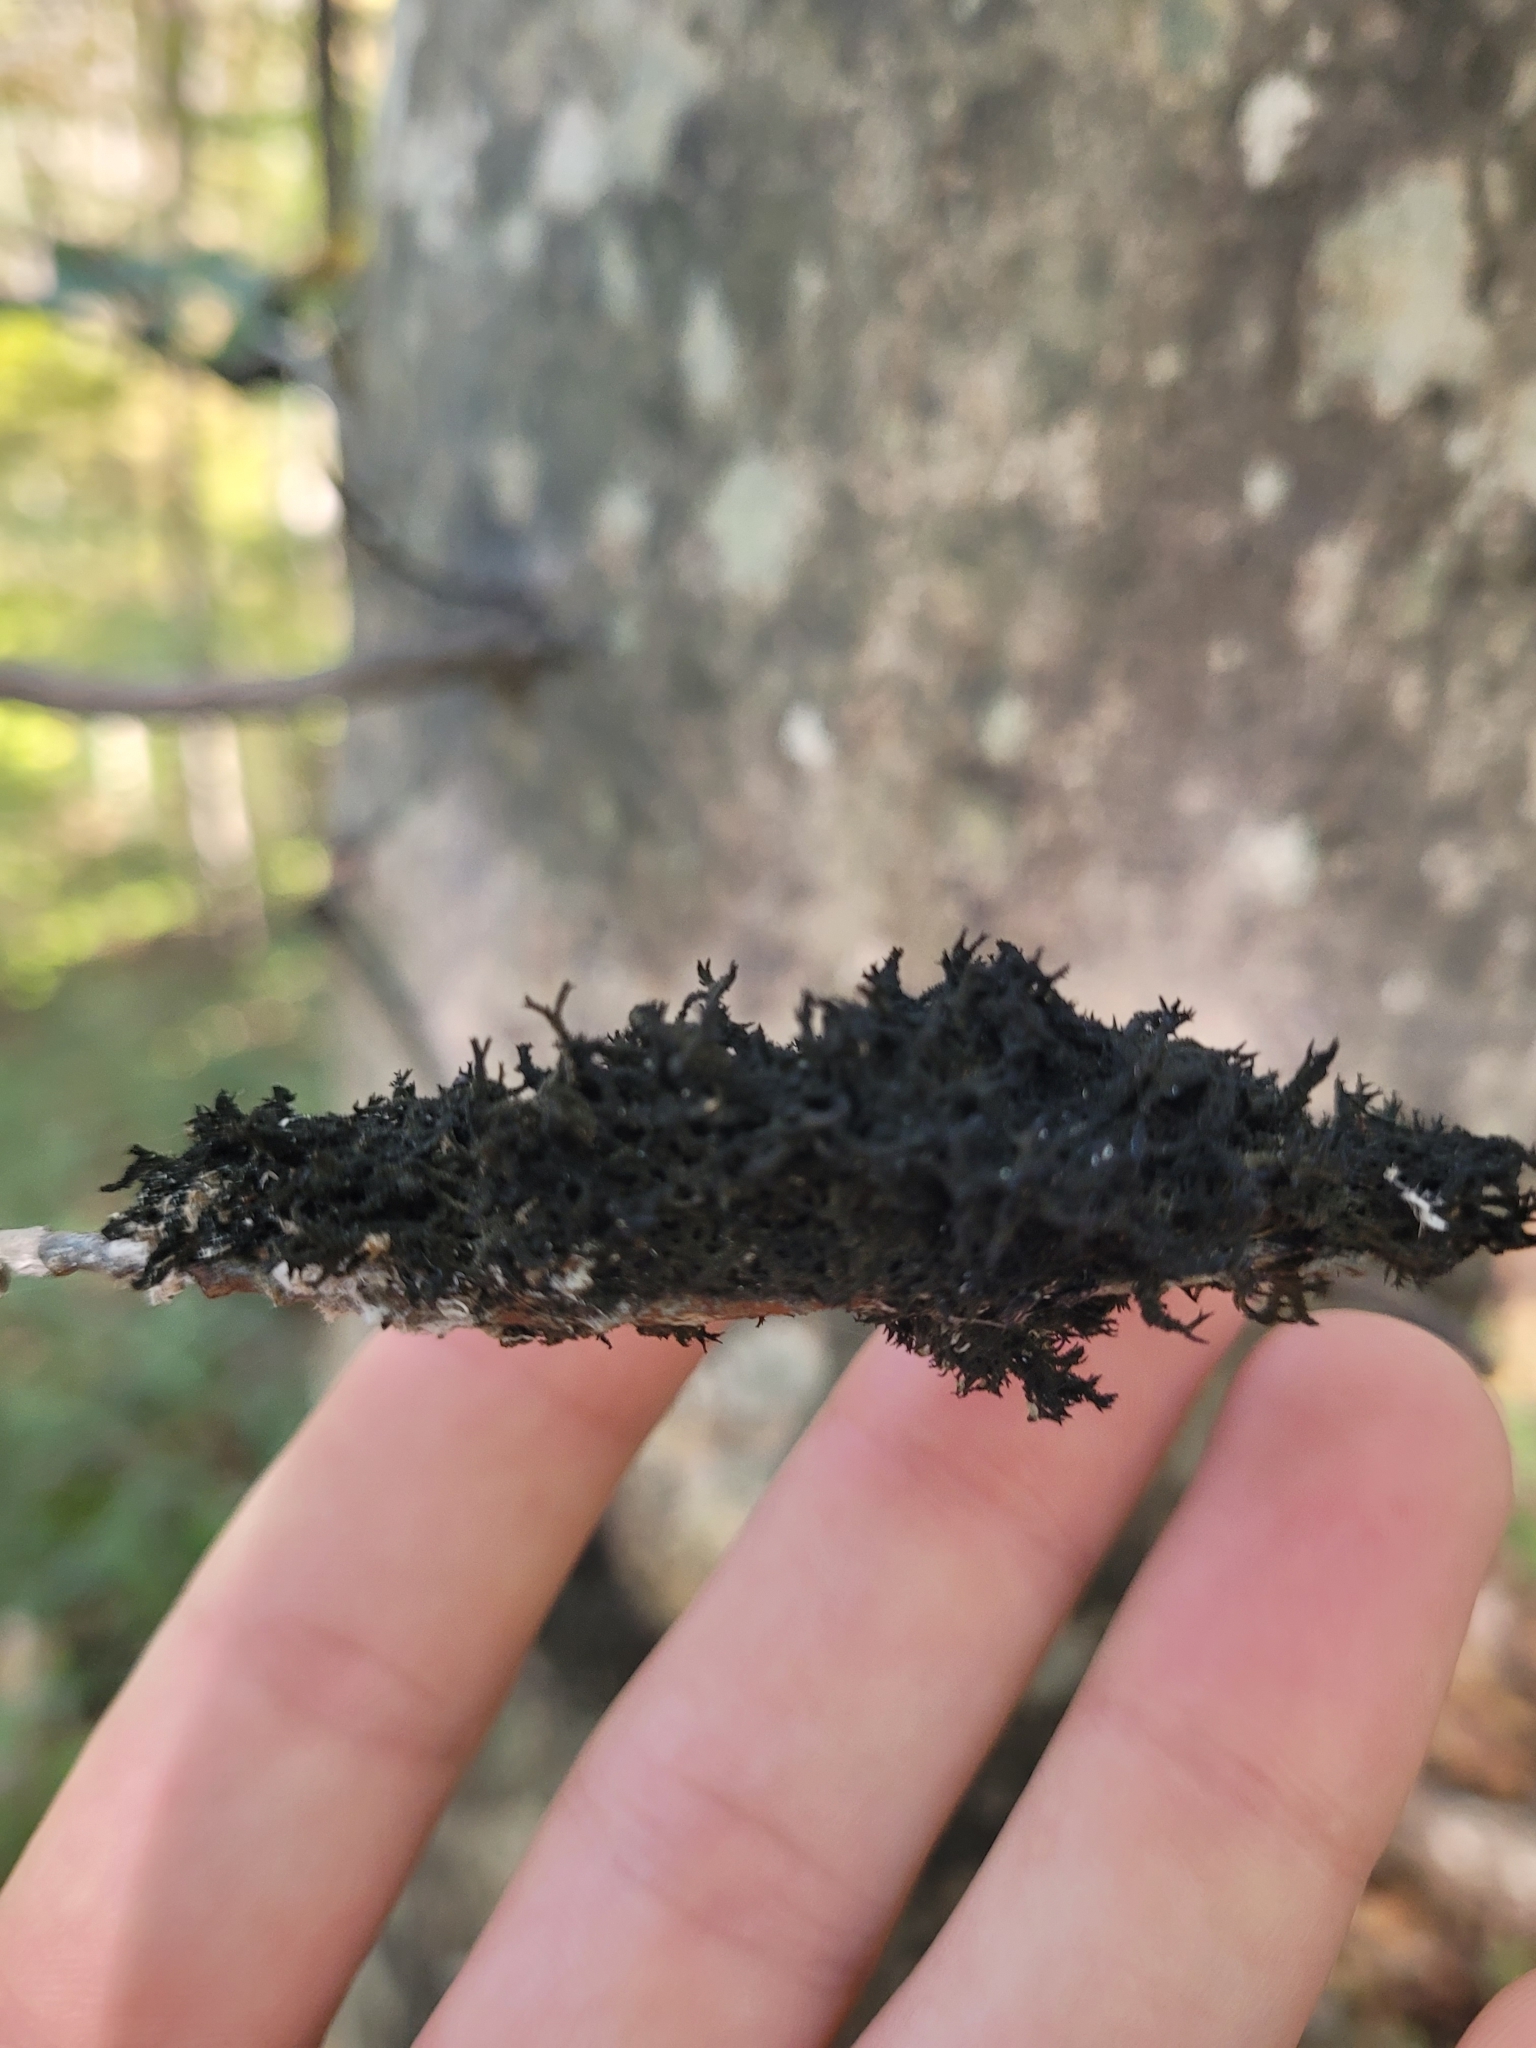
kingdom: Fungi
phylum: Ascomycota
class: Dothideomycetes
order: Capnodiales
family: Capnodiaceae
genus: Scorias
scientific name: Scorias spongiosa
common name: Black sooty mold
